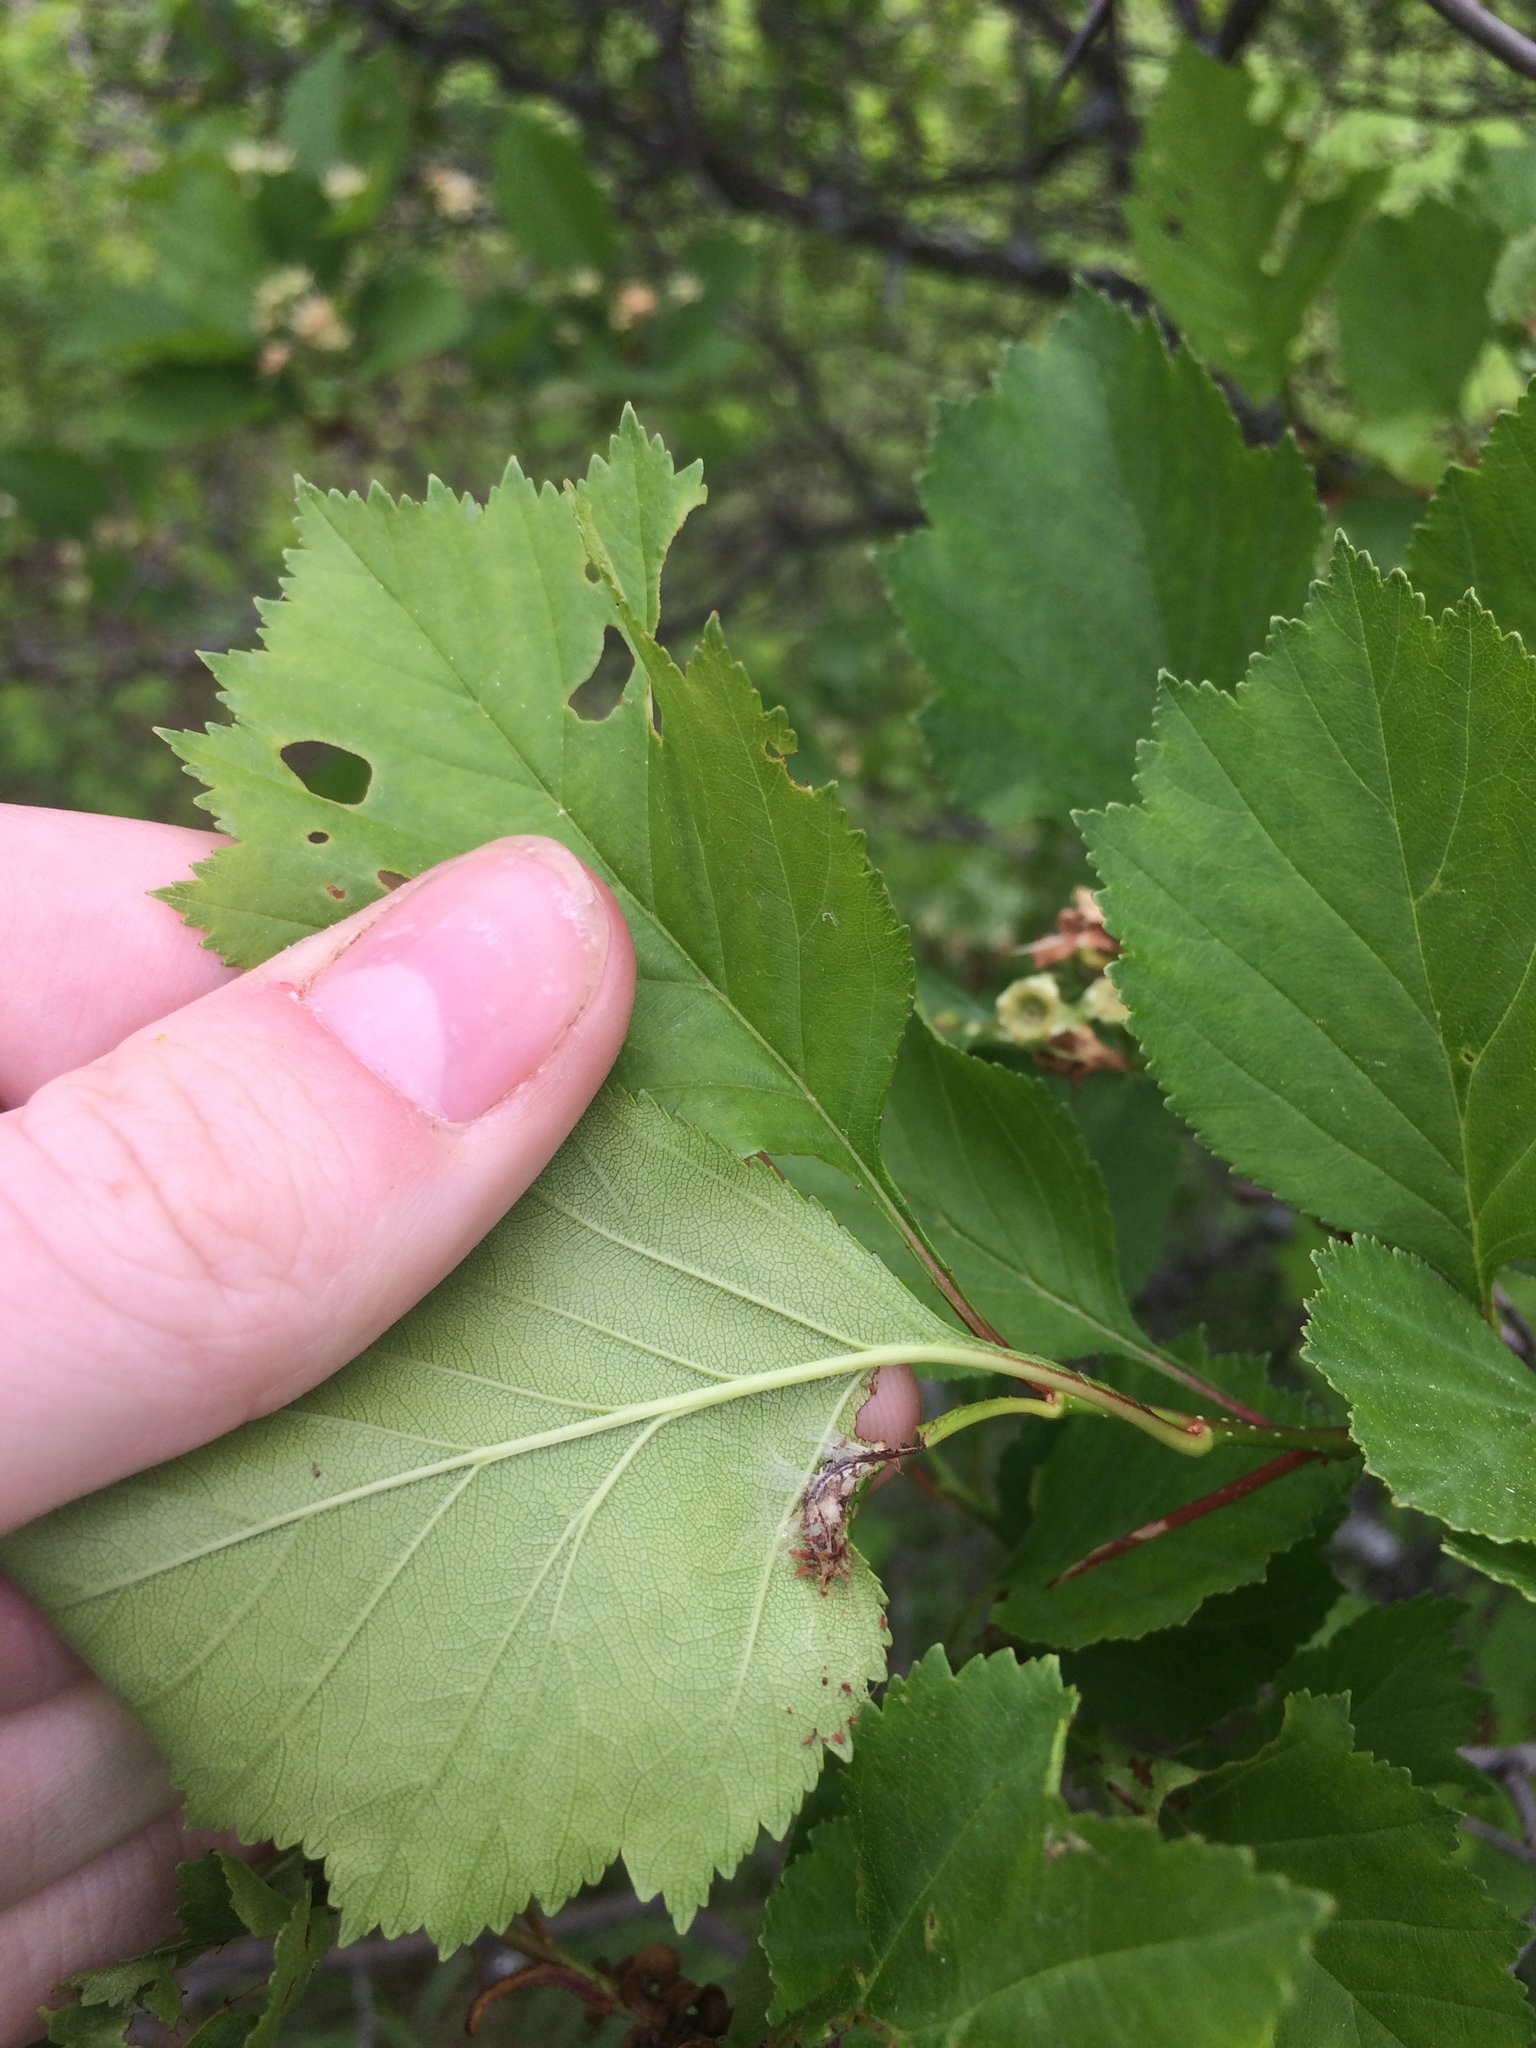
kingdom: Plantae
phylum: Tracheophyta
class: Magnoliopsida
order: Rosales
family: Rosaceae
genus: Crataegus
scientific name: Crataegus chrysocarpa
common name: Fire-berry hawthorn
